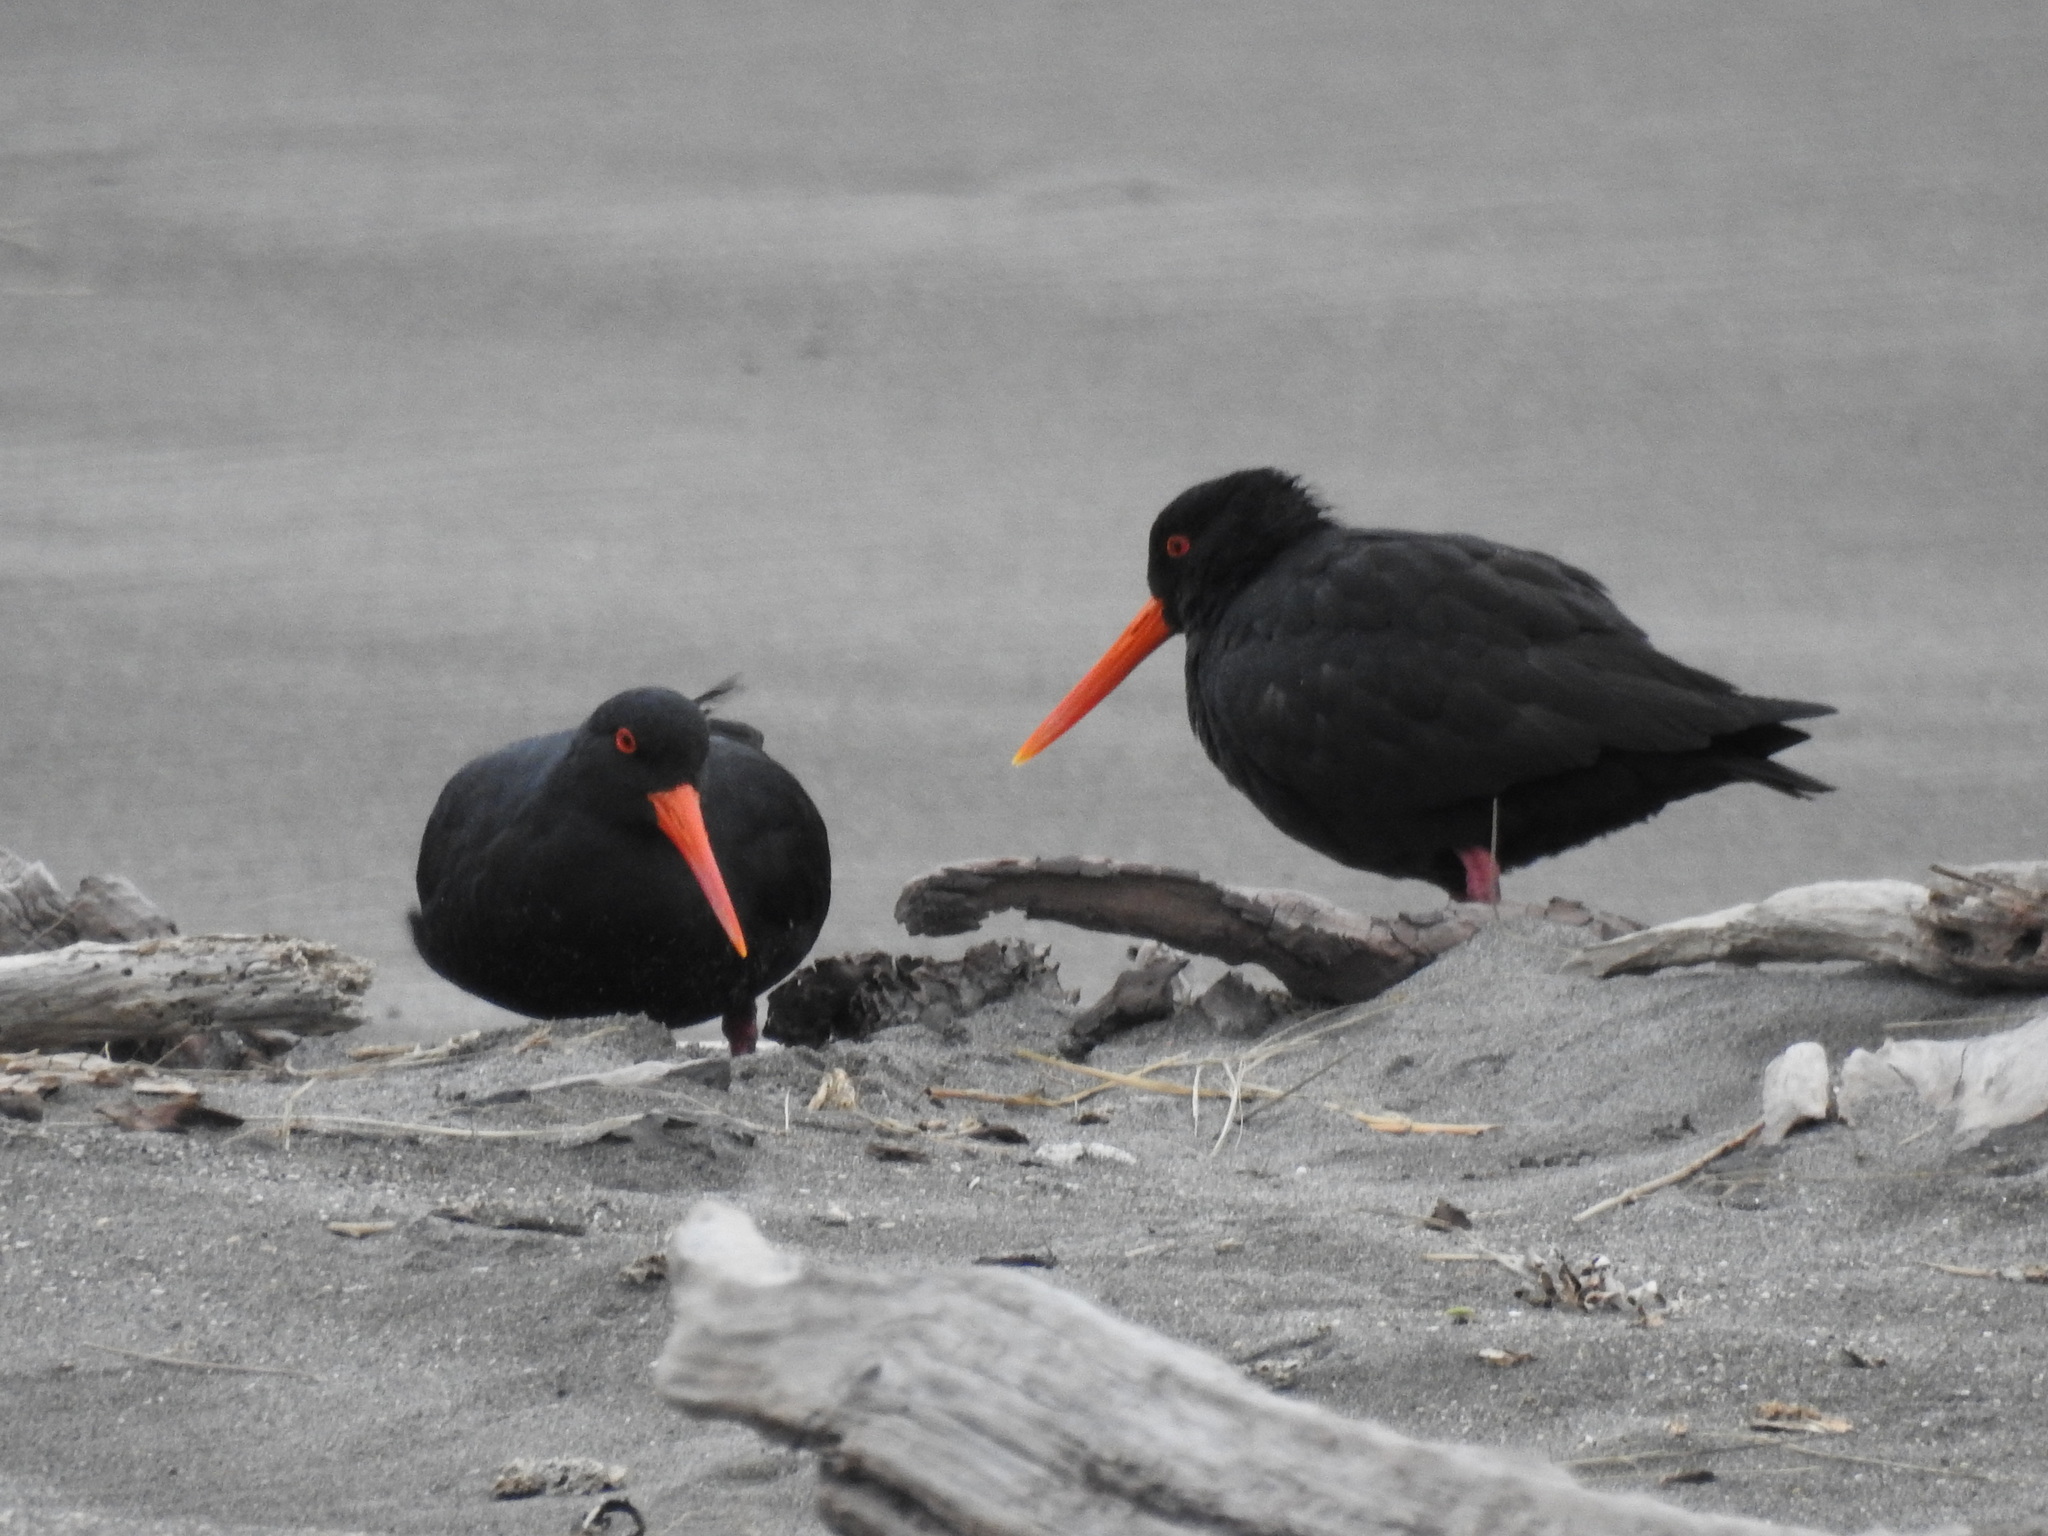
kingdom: Animalia
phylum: Chordata
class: Aves
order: Charadriiformes
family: Haematopodidae
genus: Haematopus
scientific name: Haematopus unicolor
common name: Variable oystercatcher
